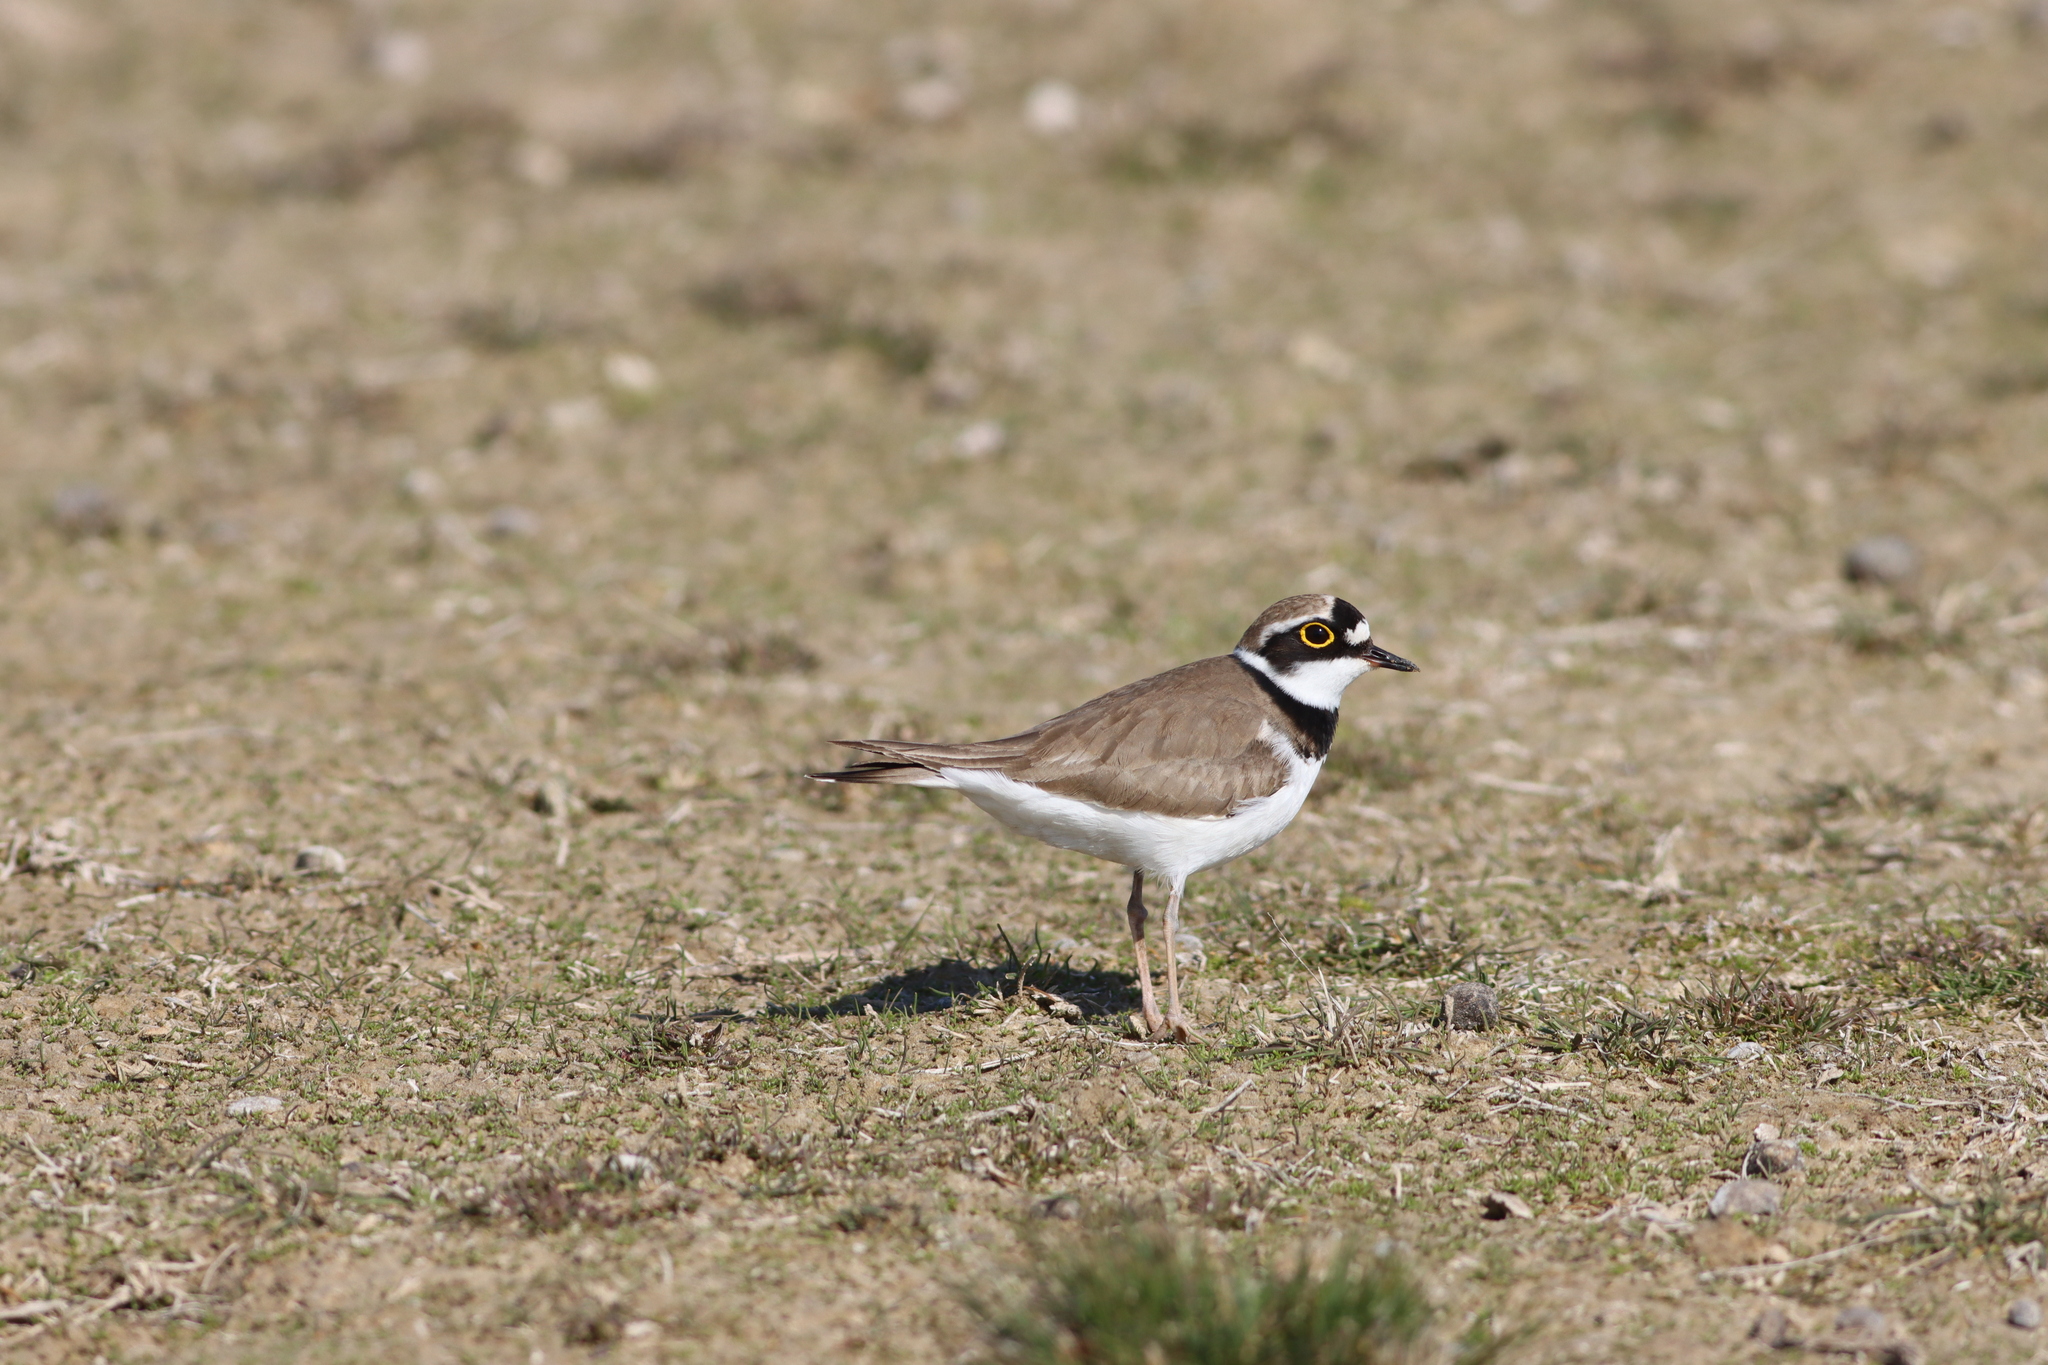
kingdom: Animalia
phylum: Chordata
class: Aves
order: Charadriiformes
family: Charadriidae
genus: Charadrius
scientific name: Charadrius dubius
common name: Little ringed plover
